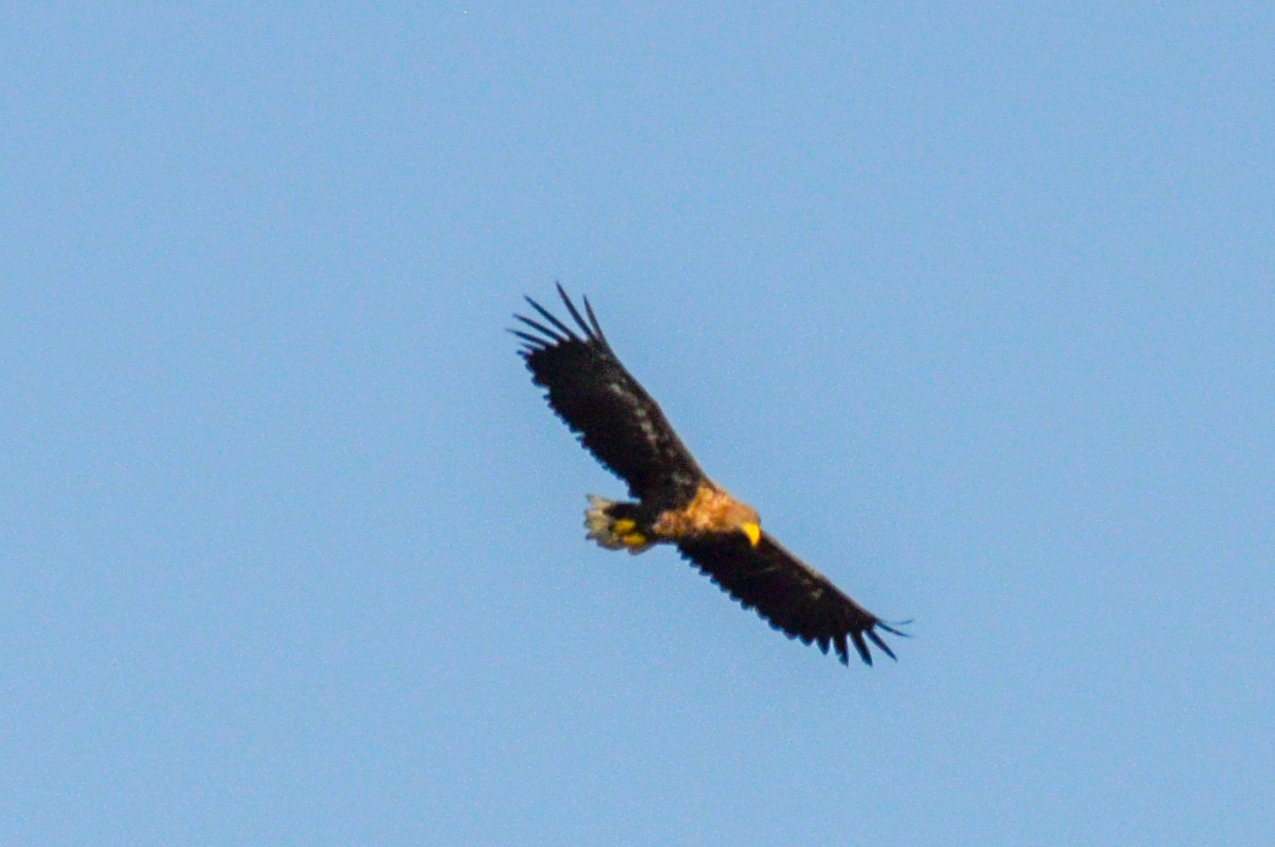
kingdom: Animalia
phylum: Chordata
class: Aves
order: Accipitriformes
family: Accipitridae
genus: Haliaeetus
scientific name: Haliaeetus albicilla
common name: White-tailed eagle
